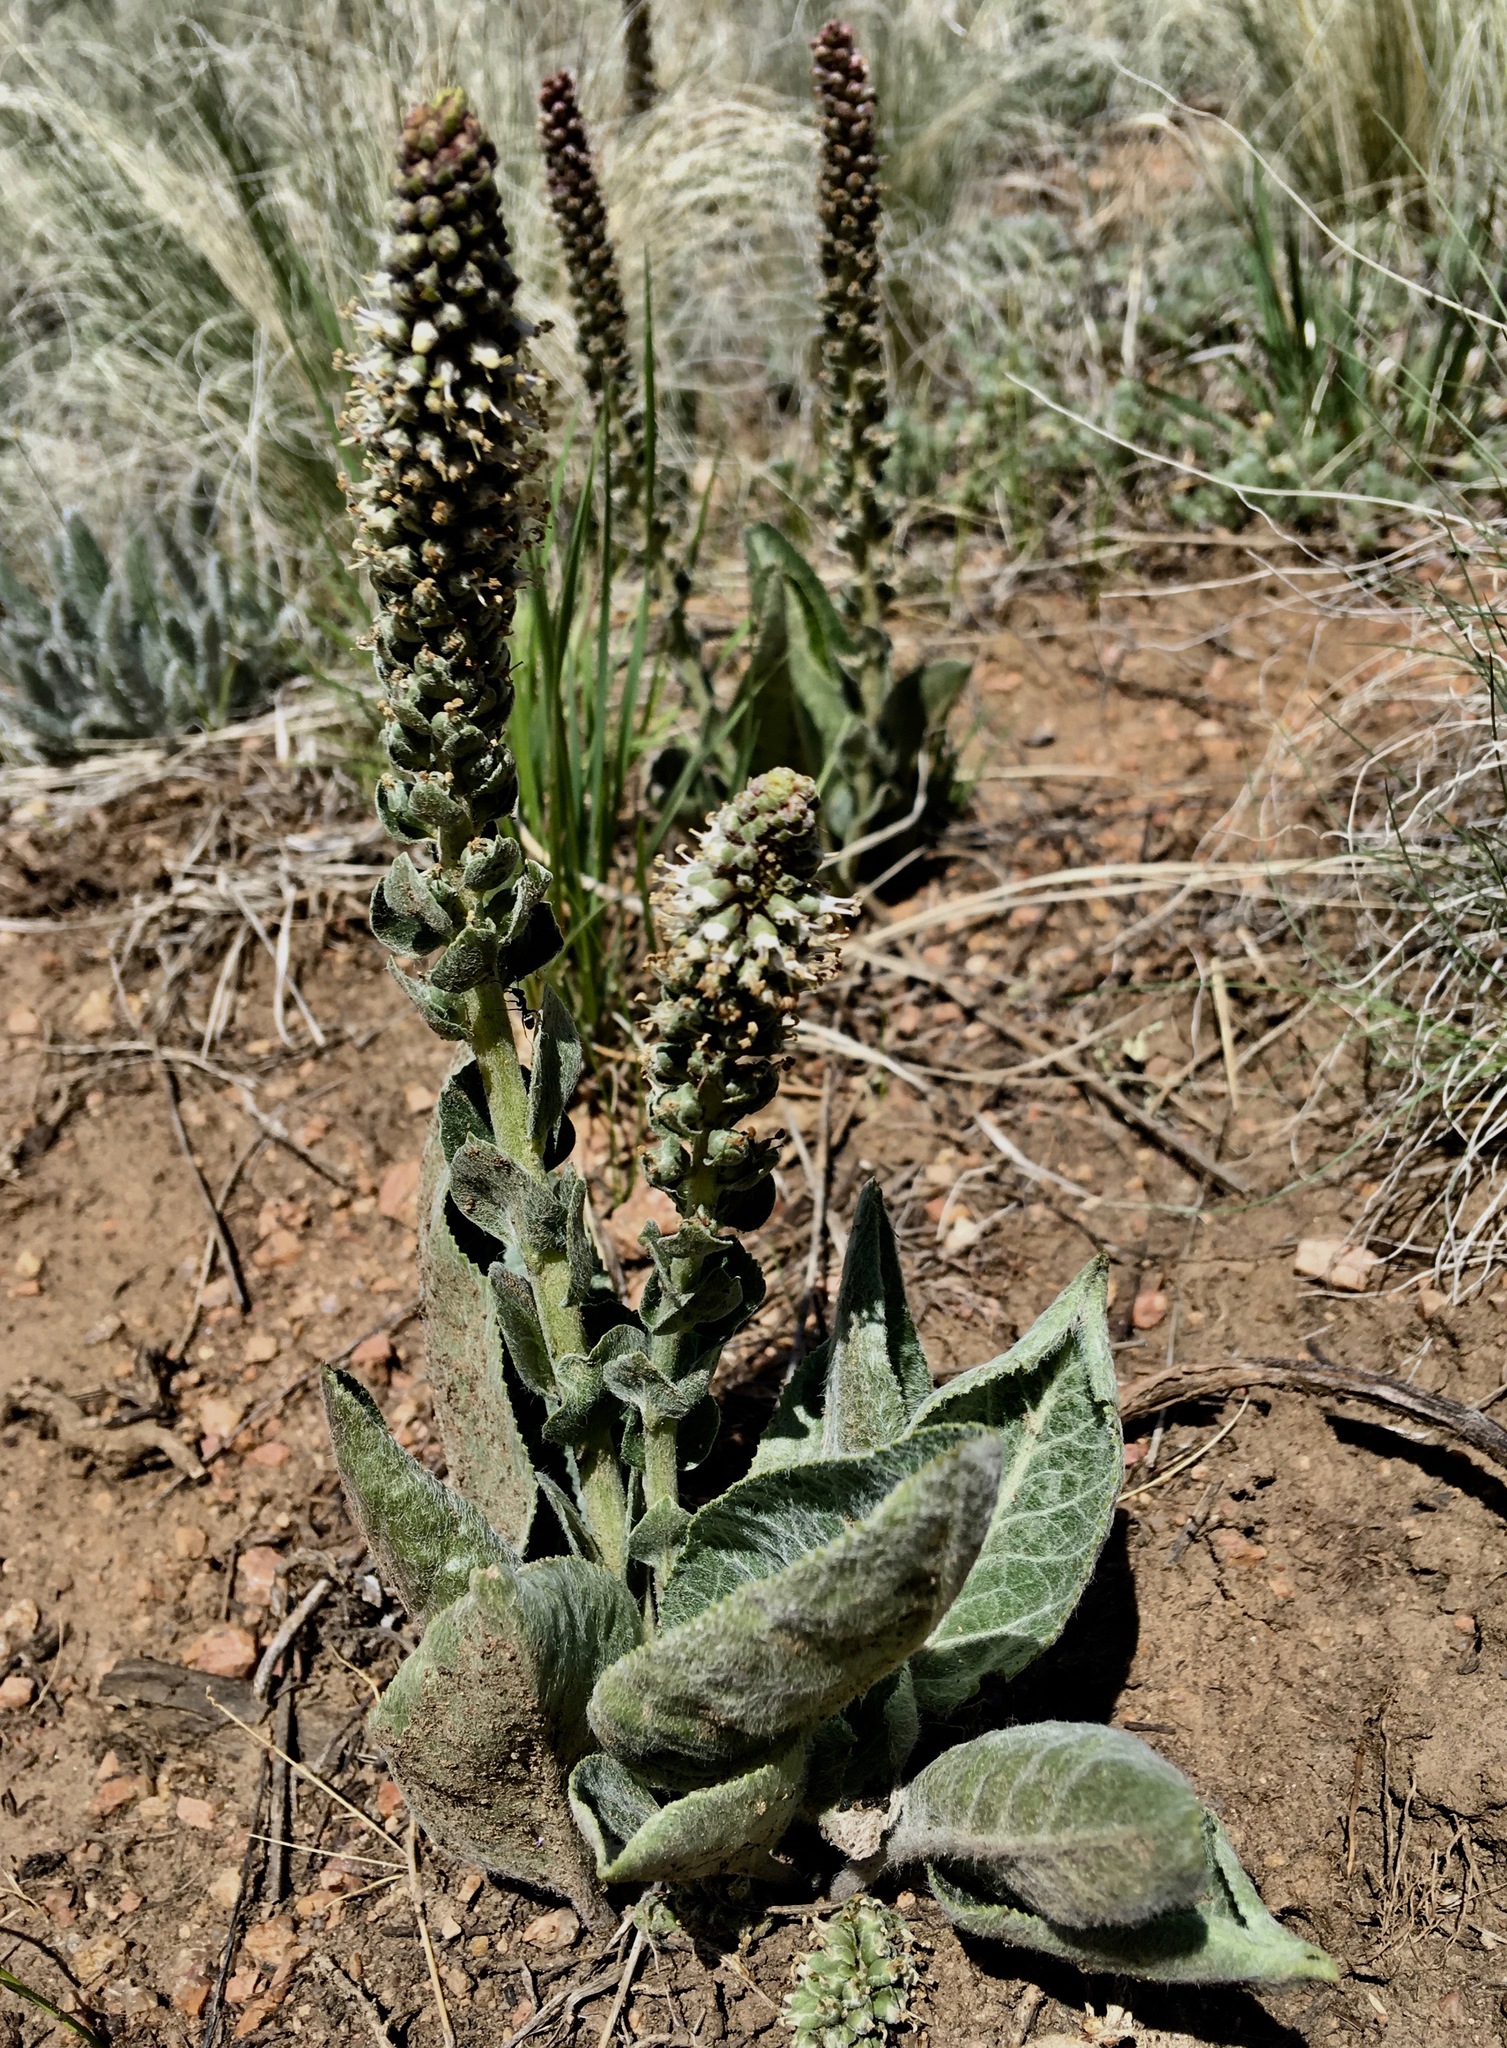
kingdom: Plantae
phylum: Tracheophyta
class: Magnoliopsida
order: Lamiales
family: Plantaginaceae
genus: Veronica
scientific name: Veronica plantaginea
